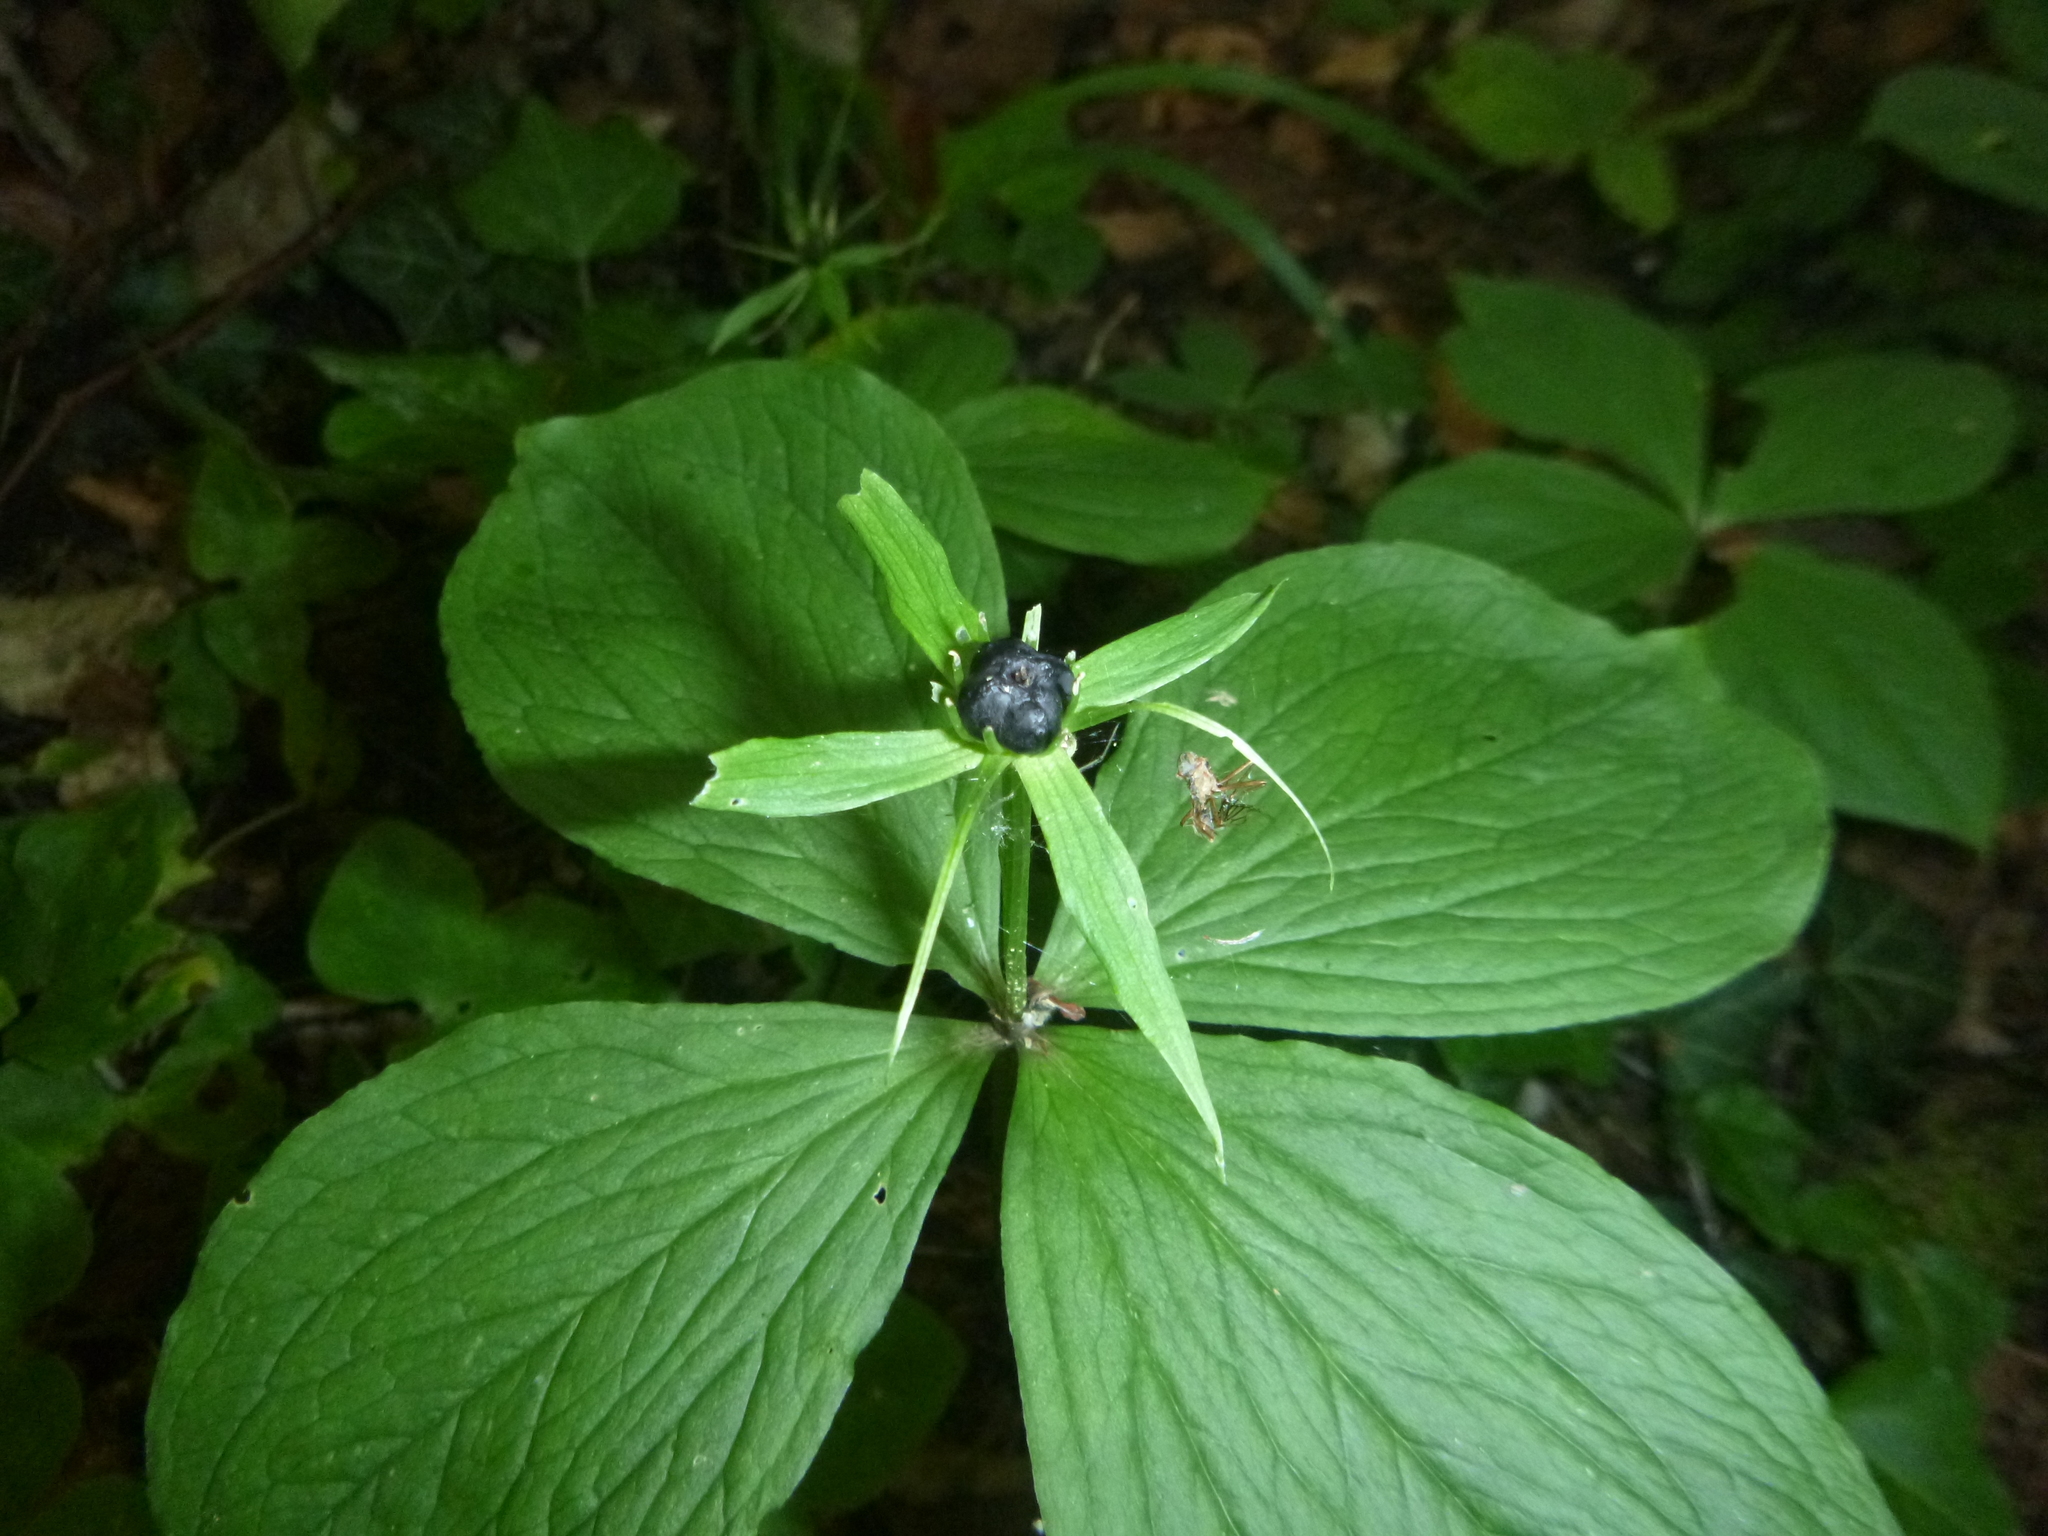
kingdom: Plantae
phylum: Tracheophyta
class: Liliopsida
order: Liliales
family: Melanthiaceae
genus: Paris
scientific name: Paris quadrifolia
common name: Herb-paris
